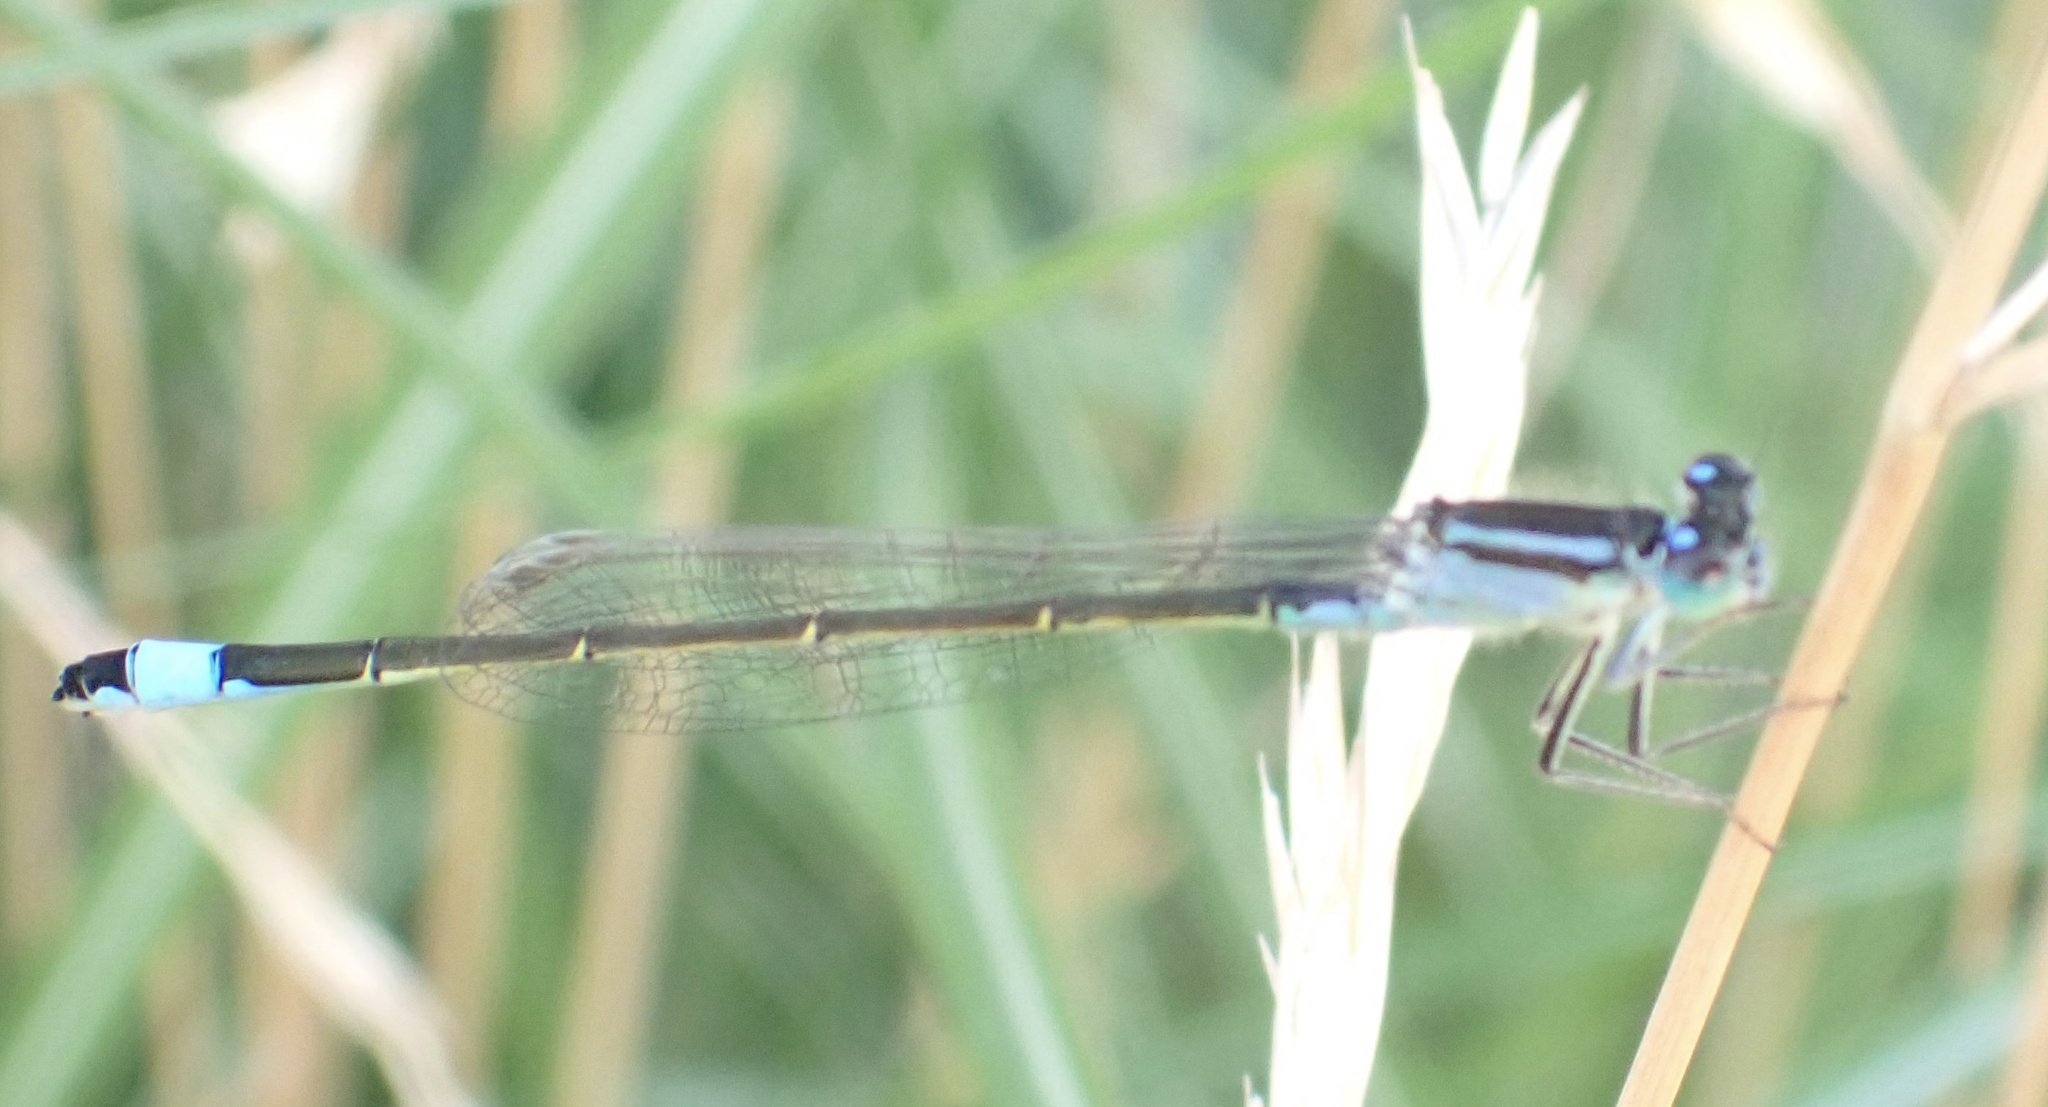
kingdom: Animalia
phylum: Arthropoda
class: Insecta
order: Odonata
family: Coenagrionidae
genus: Ischnura
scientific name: Ischnura elegans
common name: Blue-tailed damselfly
